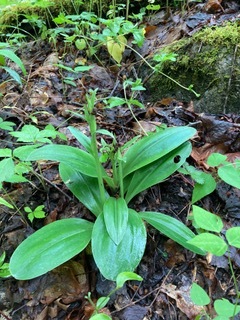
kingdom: Plantae
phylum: Tracheophyta
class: Liliopsida
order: Asparagales
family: Orchidaceae
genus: Galearis
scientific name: Galearis spectabilis
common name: Purple-hooded orchis
